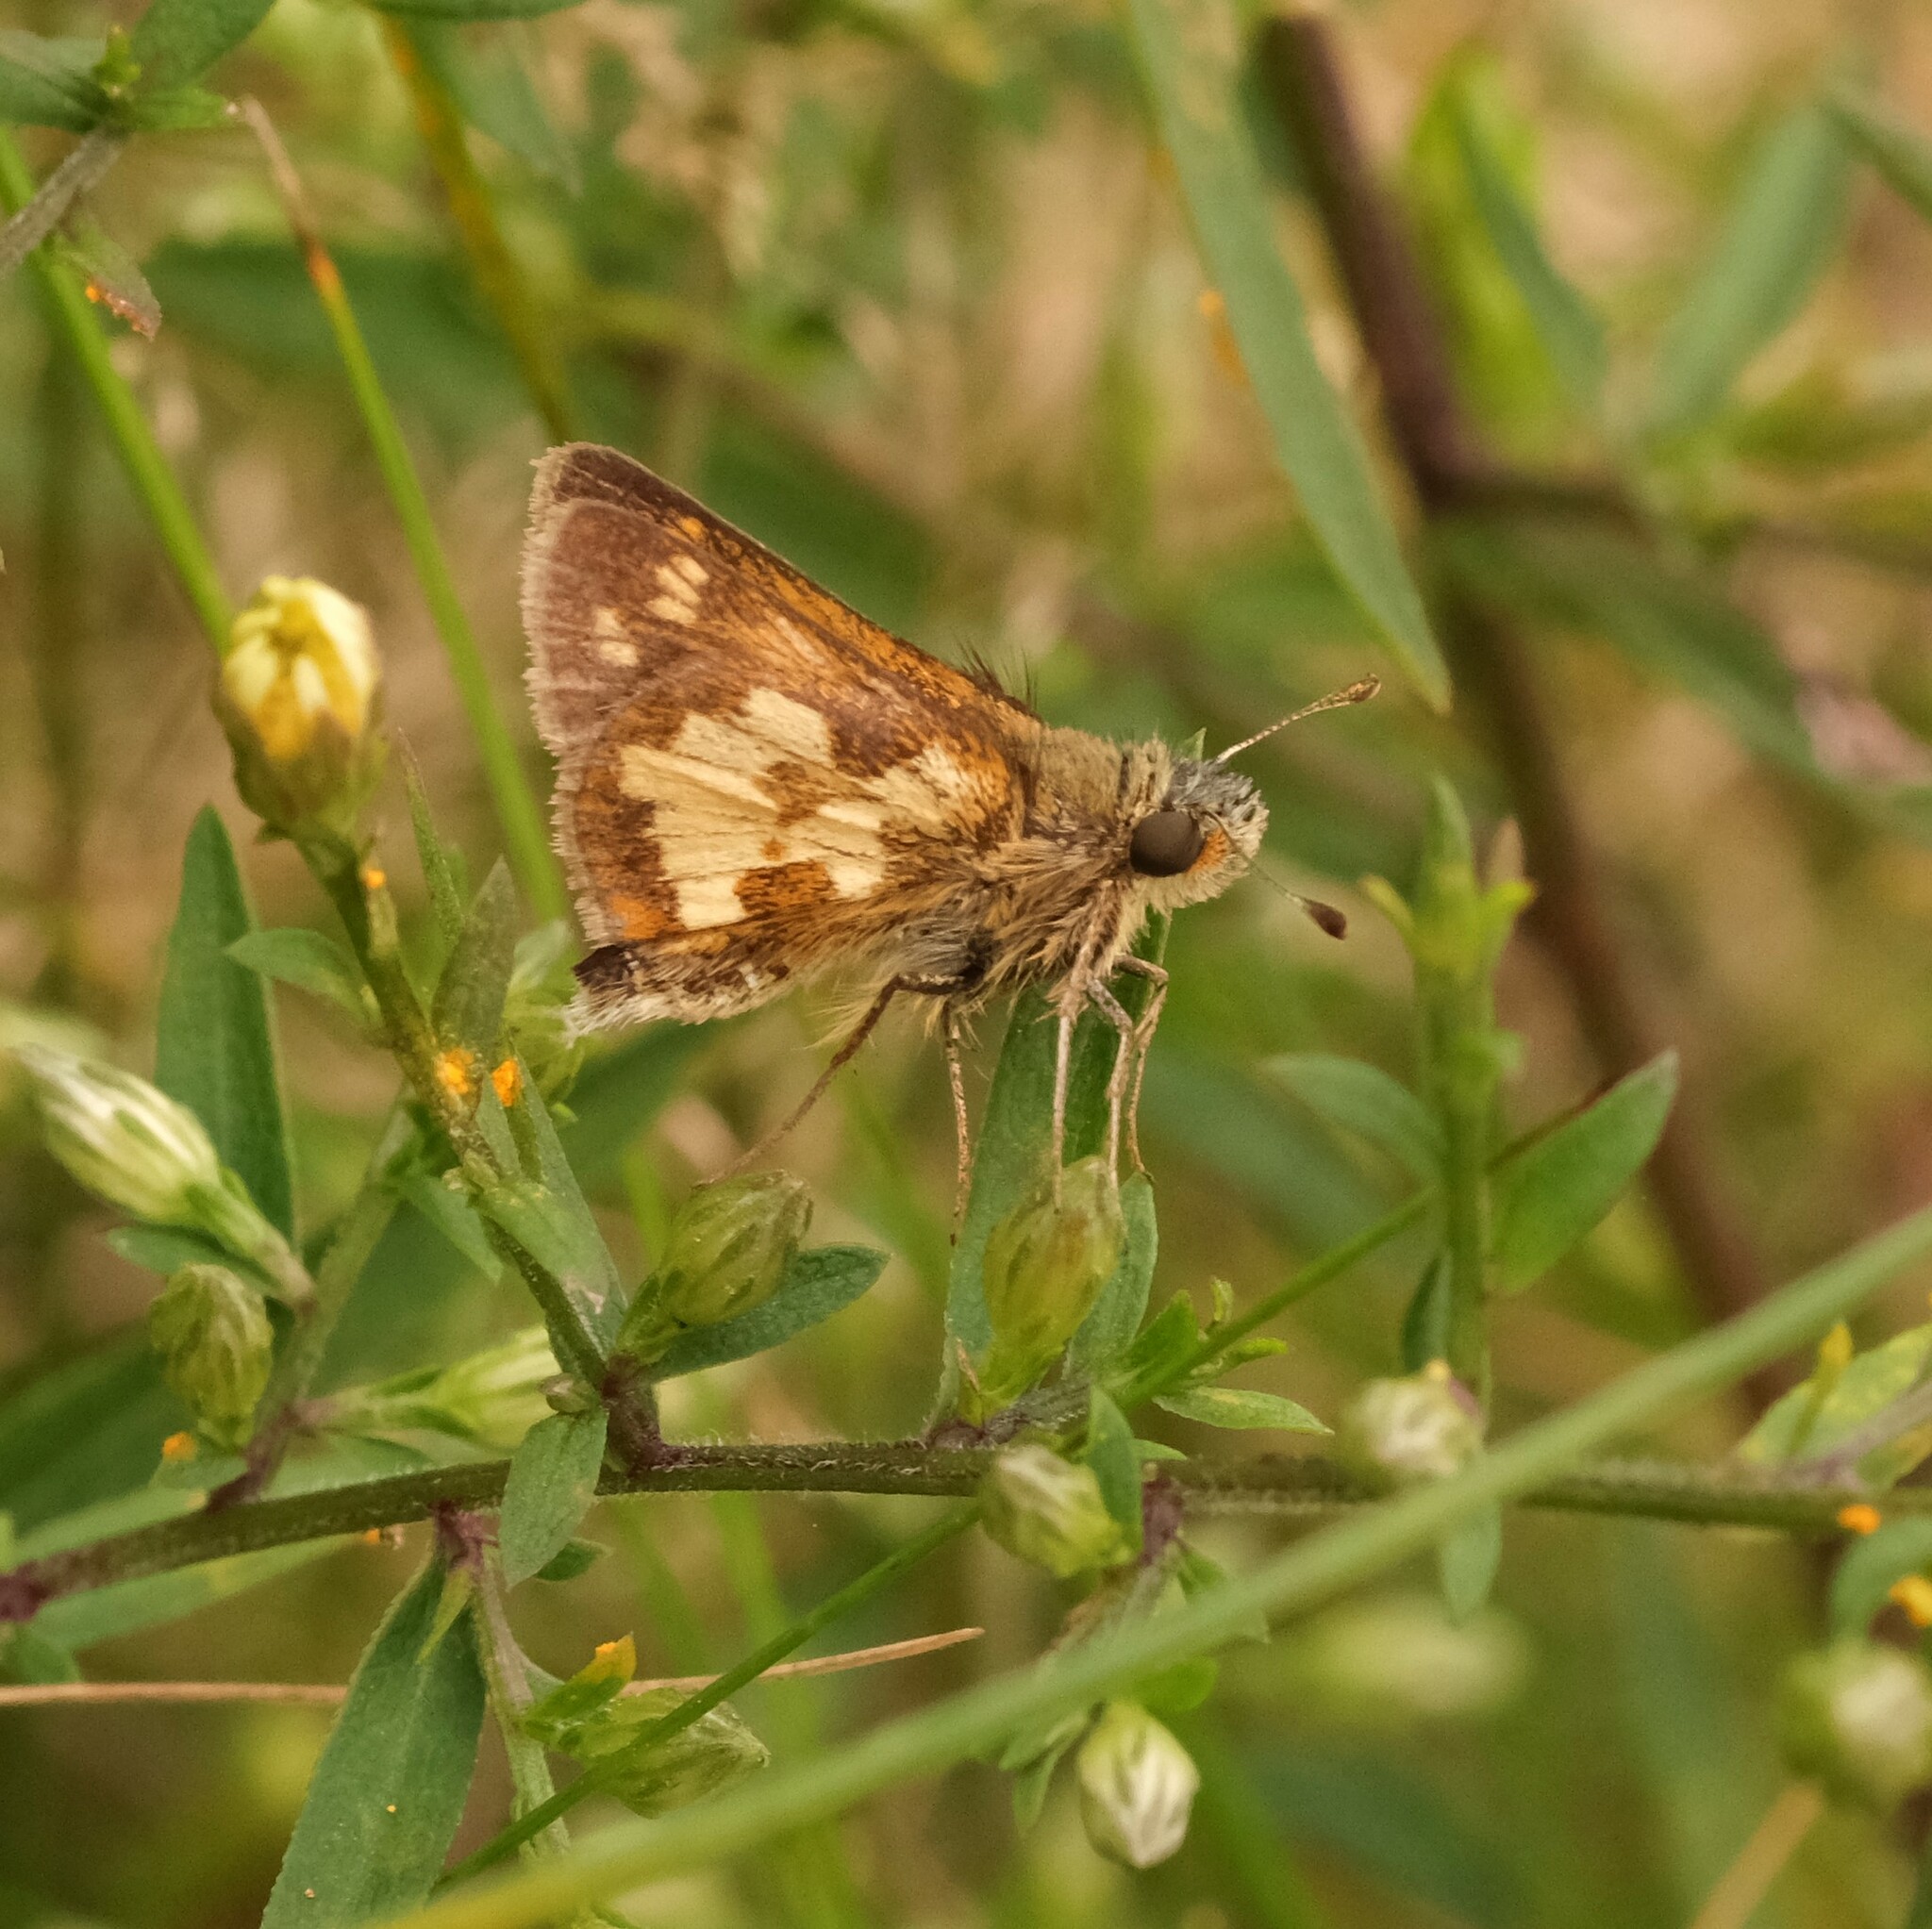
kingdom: Animalia
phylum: Arthropoda
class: Insecta
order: Lepidoptera
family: Hesperiidae
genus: Polites
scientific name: Polites coras
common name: Peck's skipper
